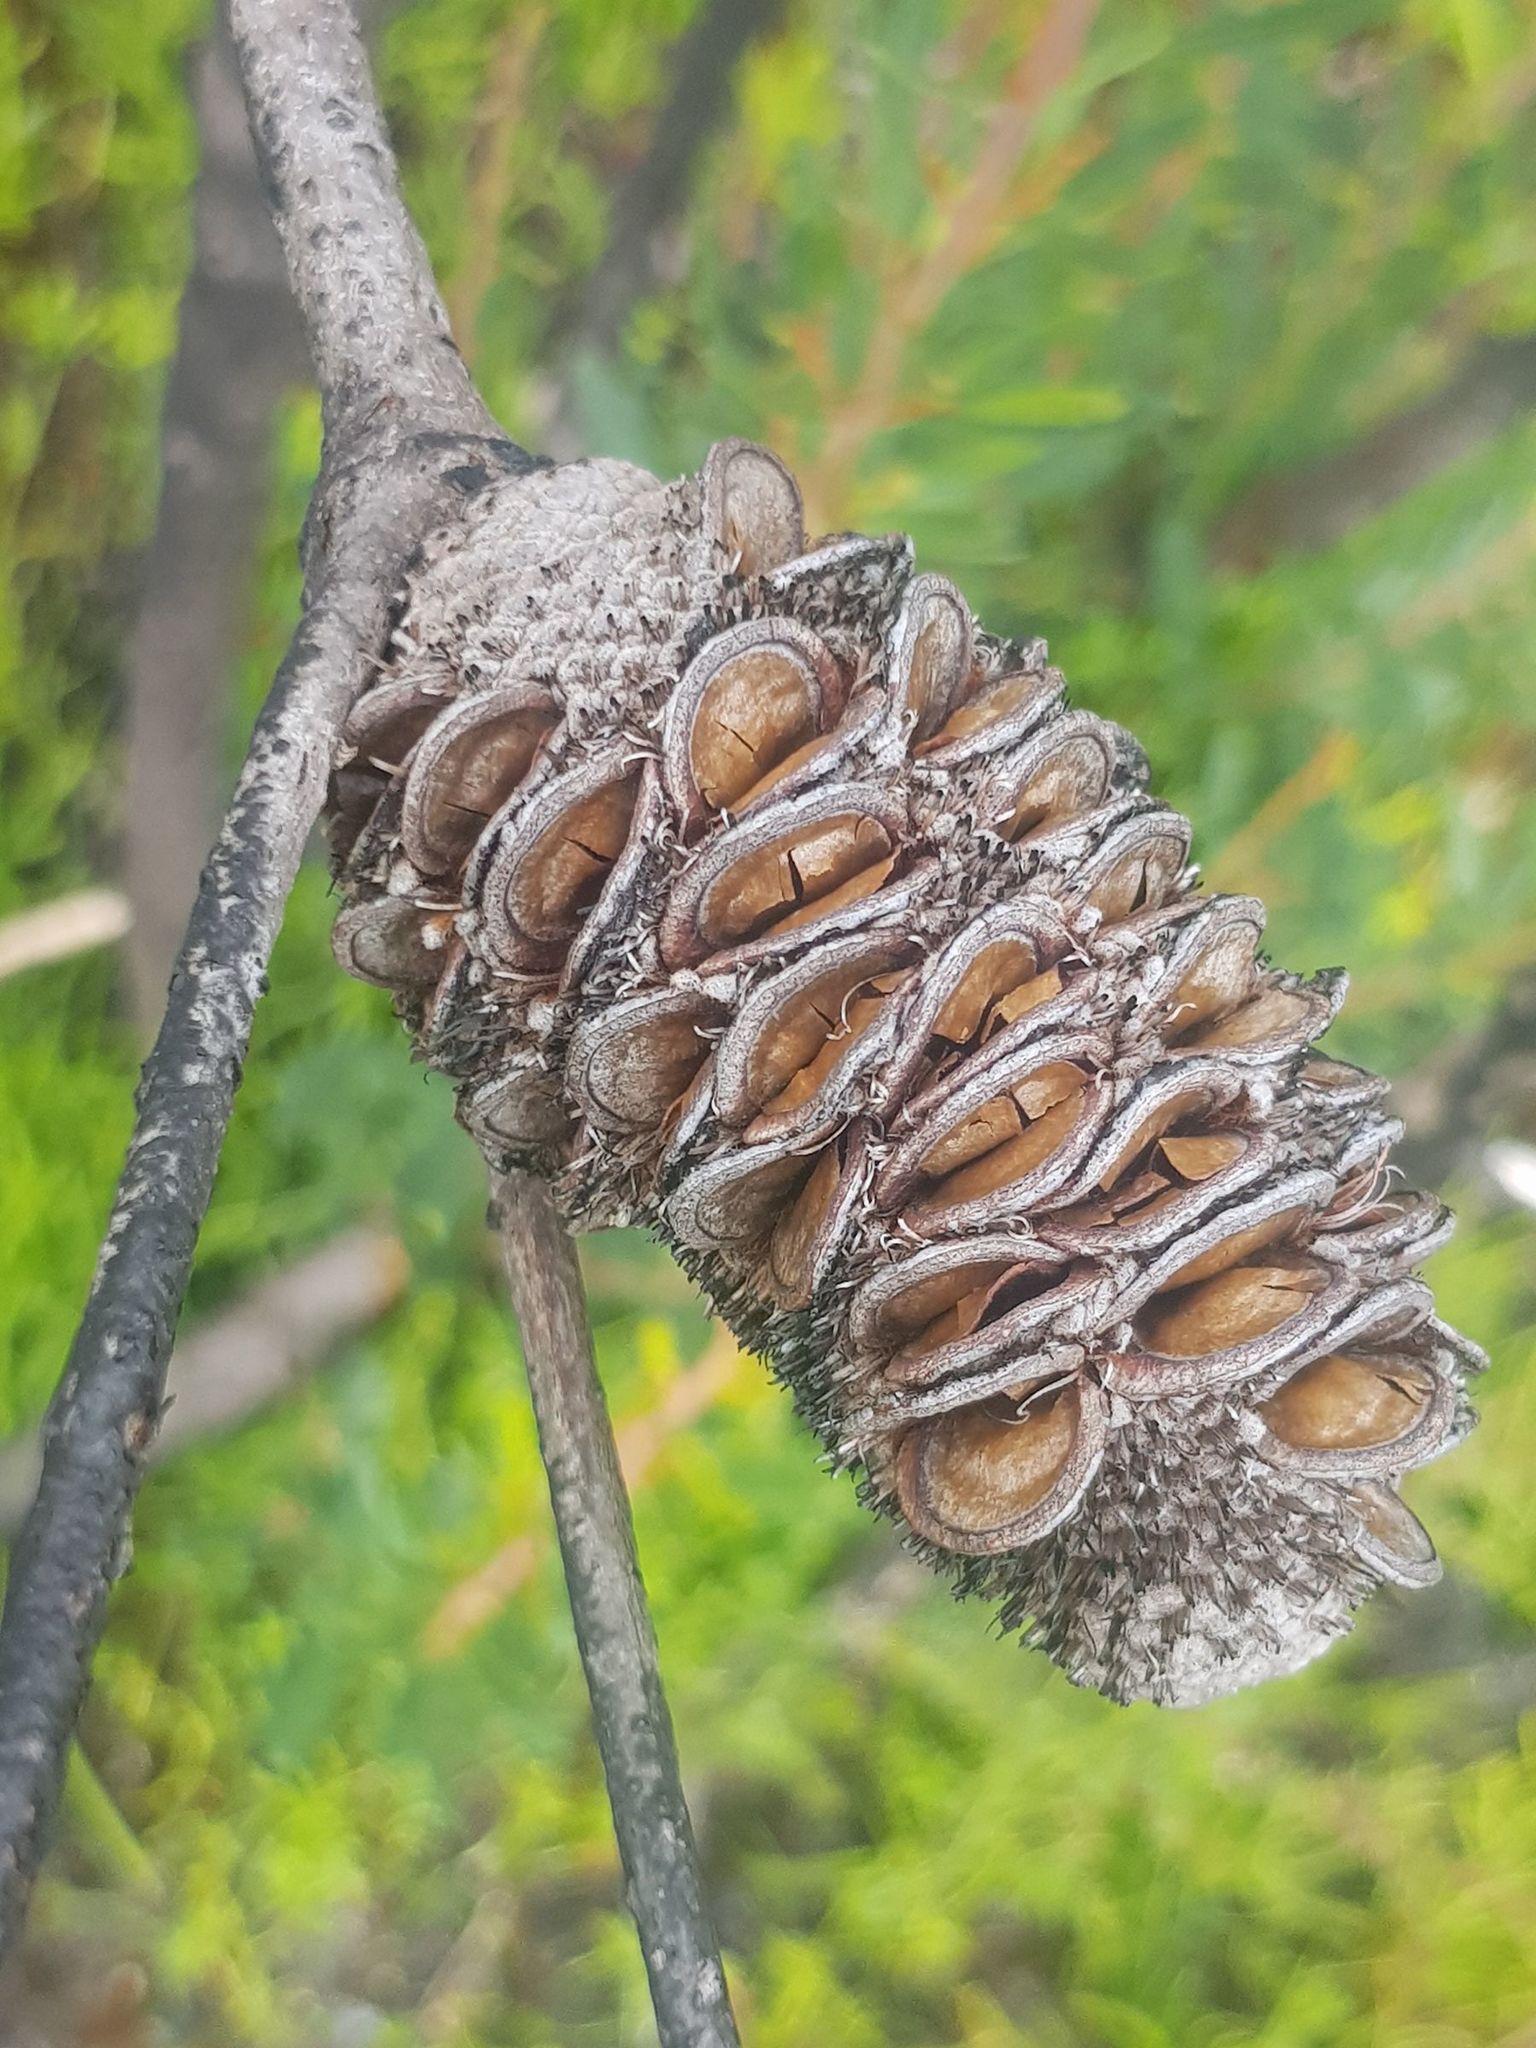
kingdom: Plantae
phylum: Tracheophyta
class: Magnoliopsida
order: Proteales
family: Proteaceae
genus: Banksia
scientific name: Banksia marginata
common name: Silver banksia
